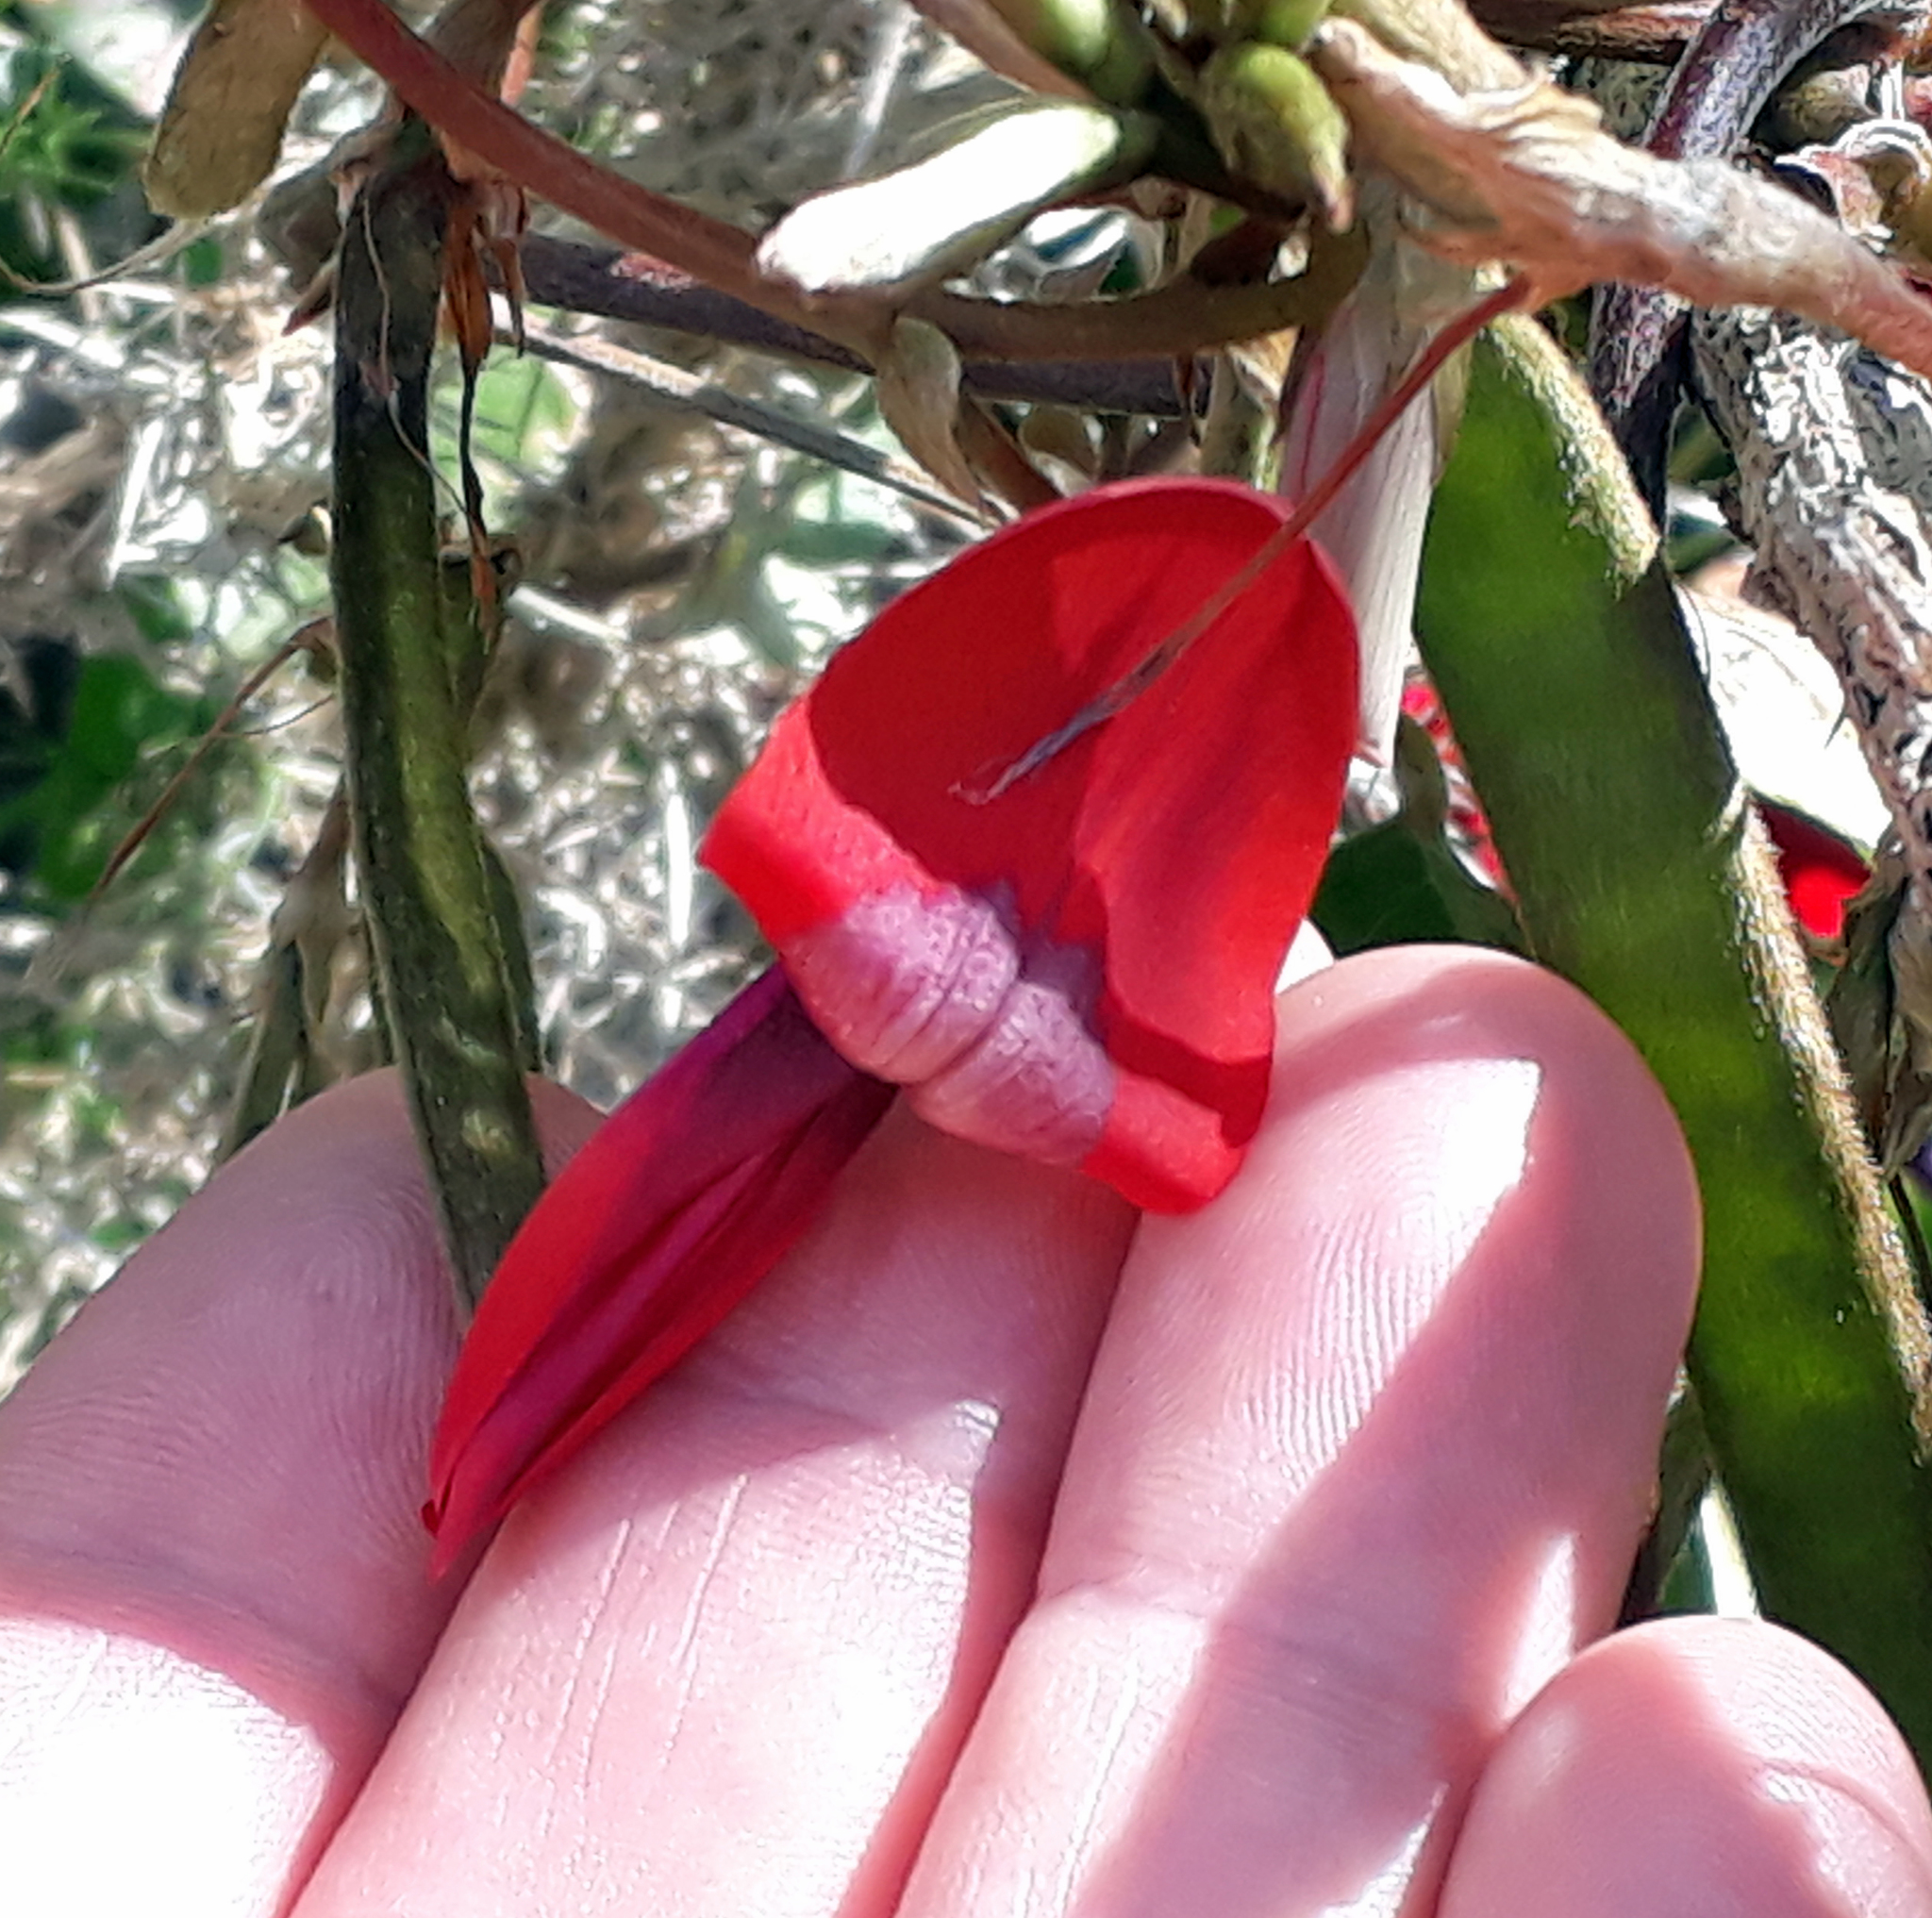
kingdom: Plantae
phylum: Tracheophyta
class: Magnoliopsida
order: Fabales
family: Fabaceae
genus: Kennedia
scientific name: Kennedia rubicunda
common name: Red kennedy-pea
